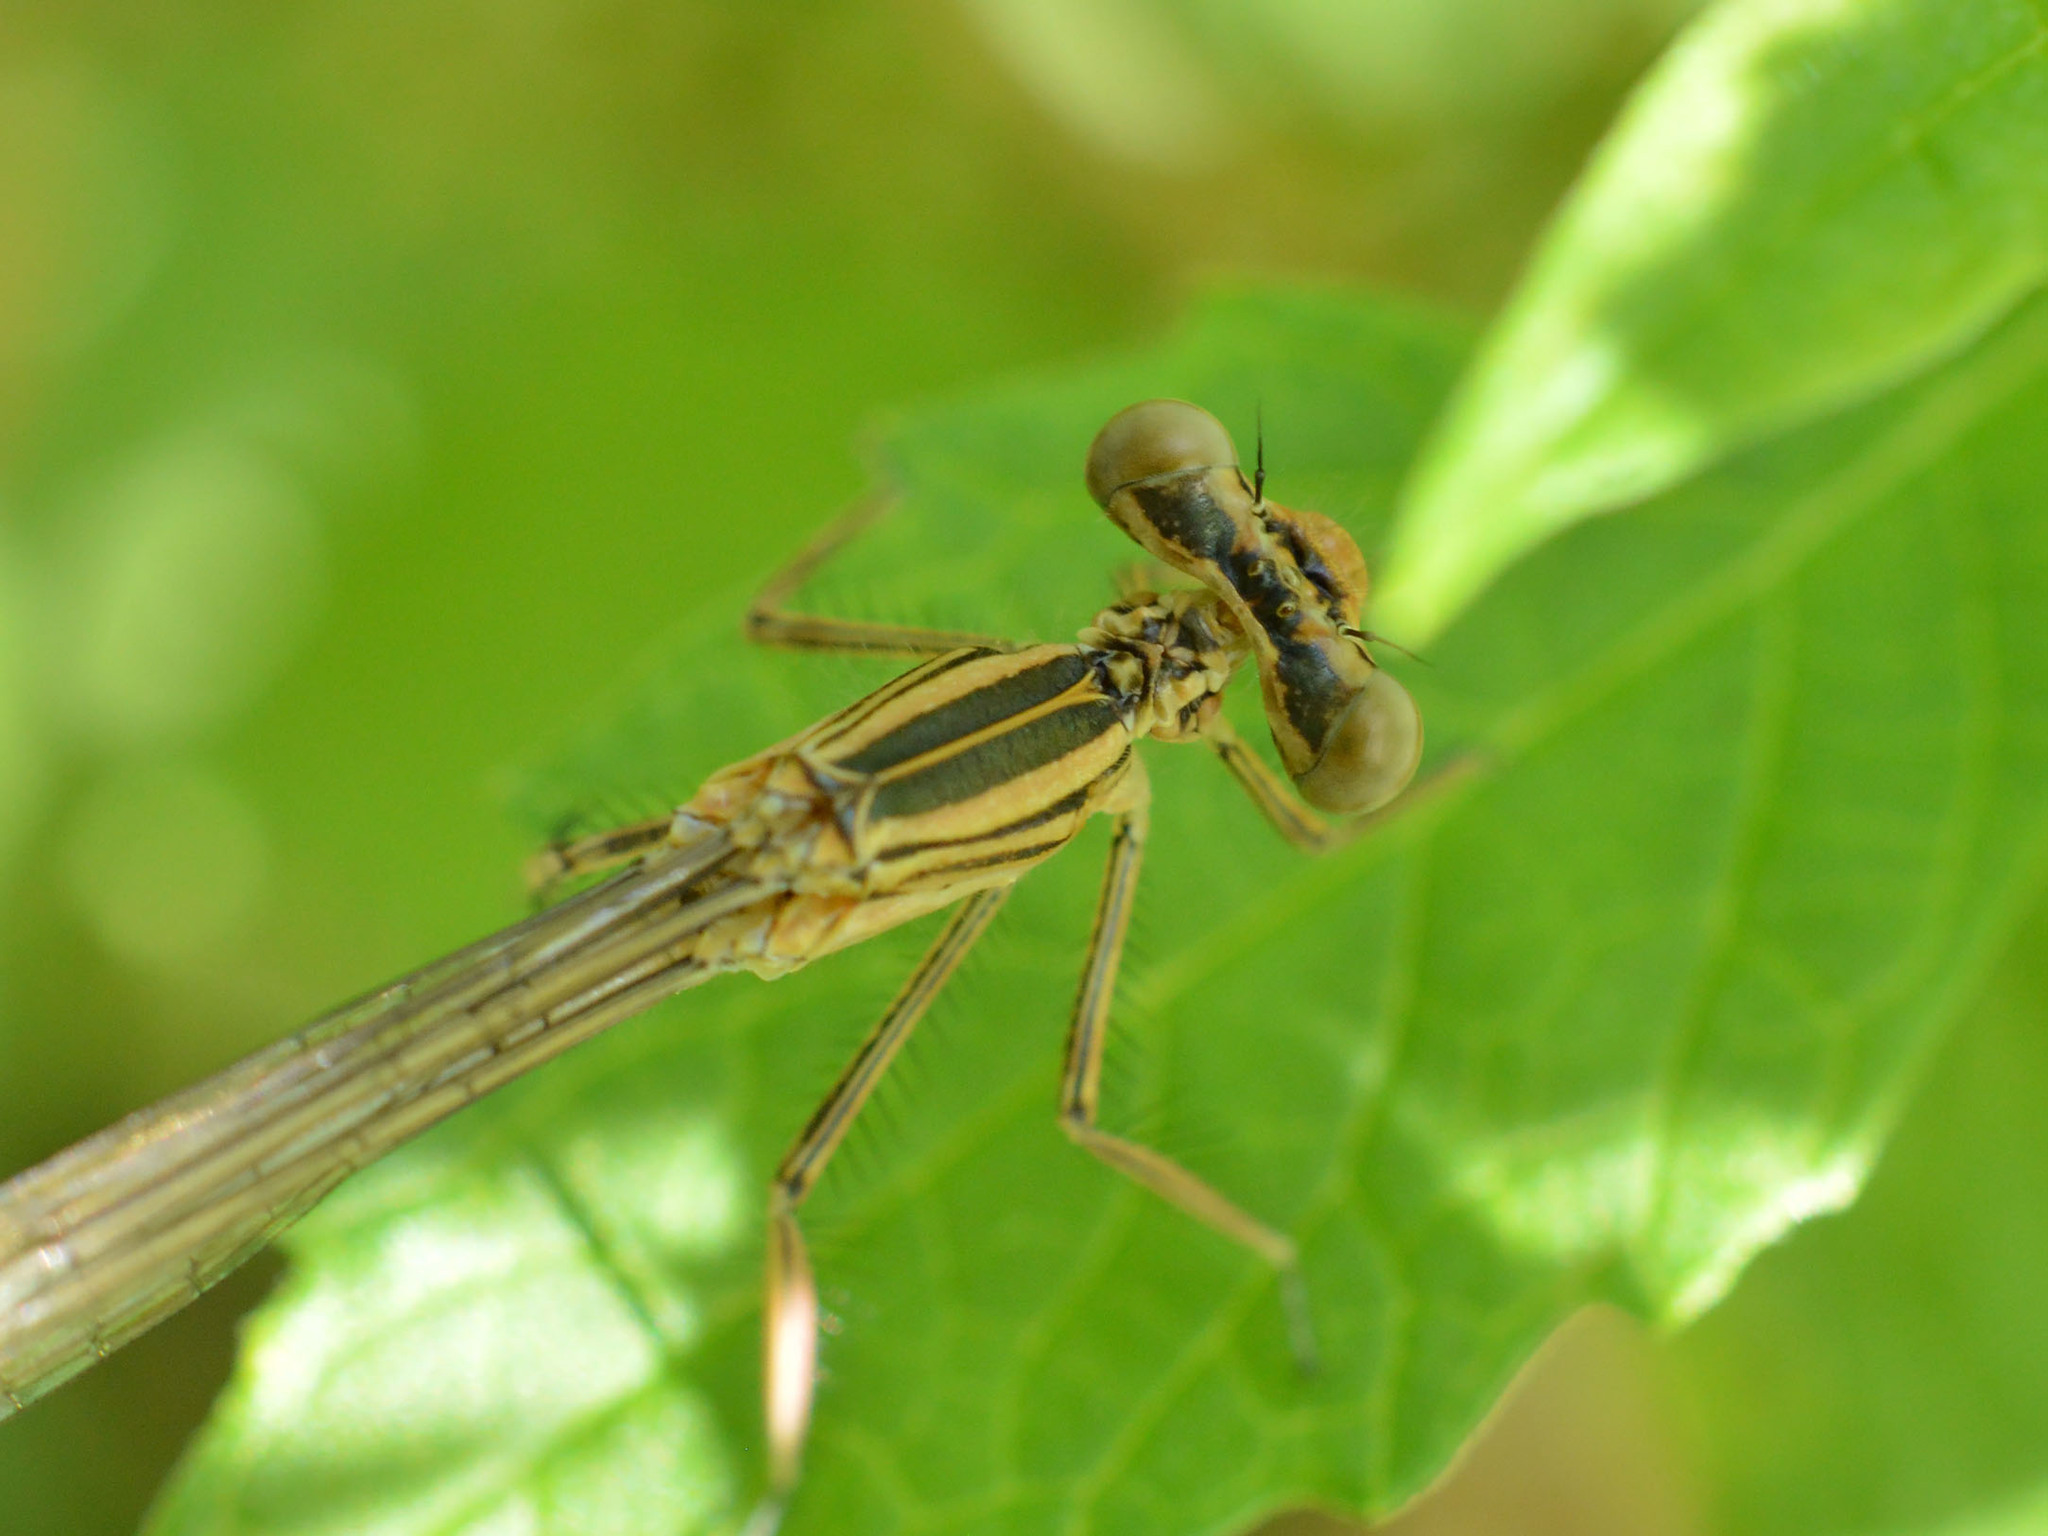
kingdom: Animalia
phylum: Arthropoda
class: Insecta
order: Odonata
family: Platycnemididae
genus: Platycnemis
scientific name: Platycnemis pennipes
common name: White-legged damselfly
